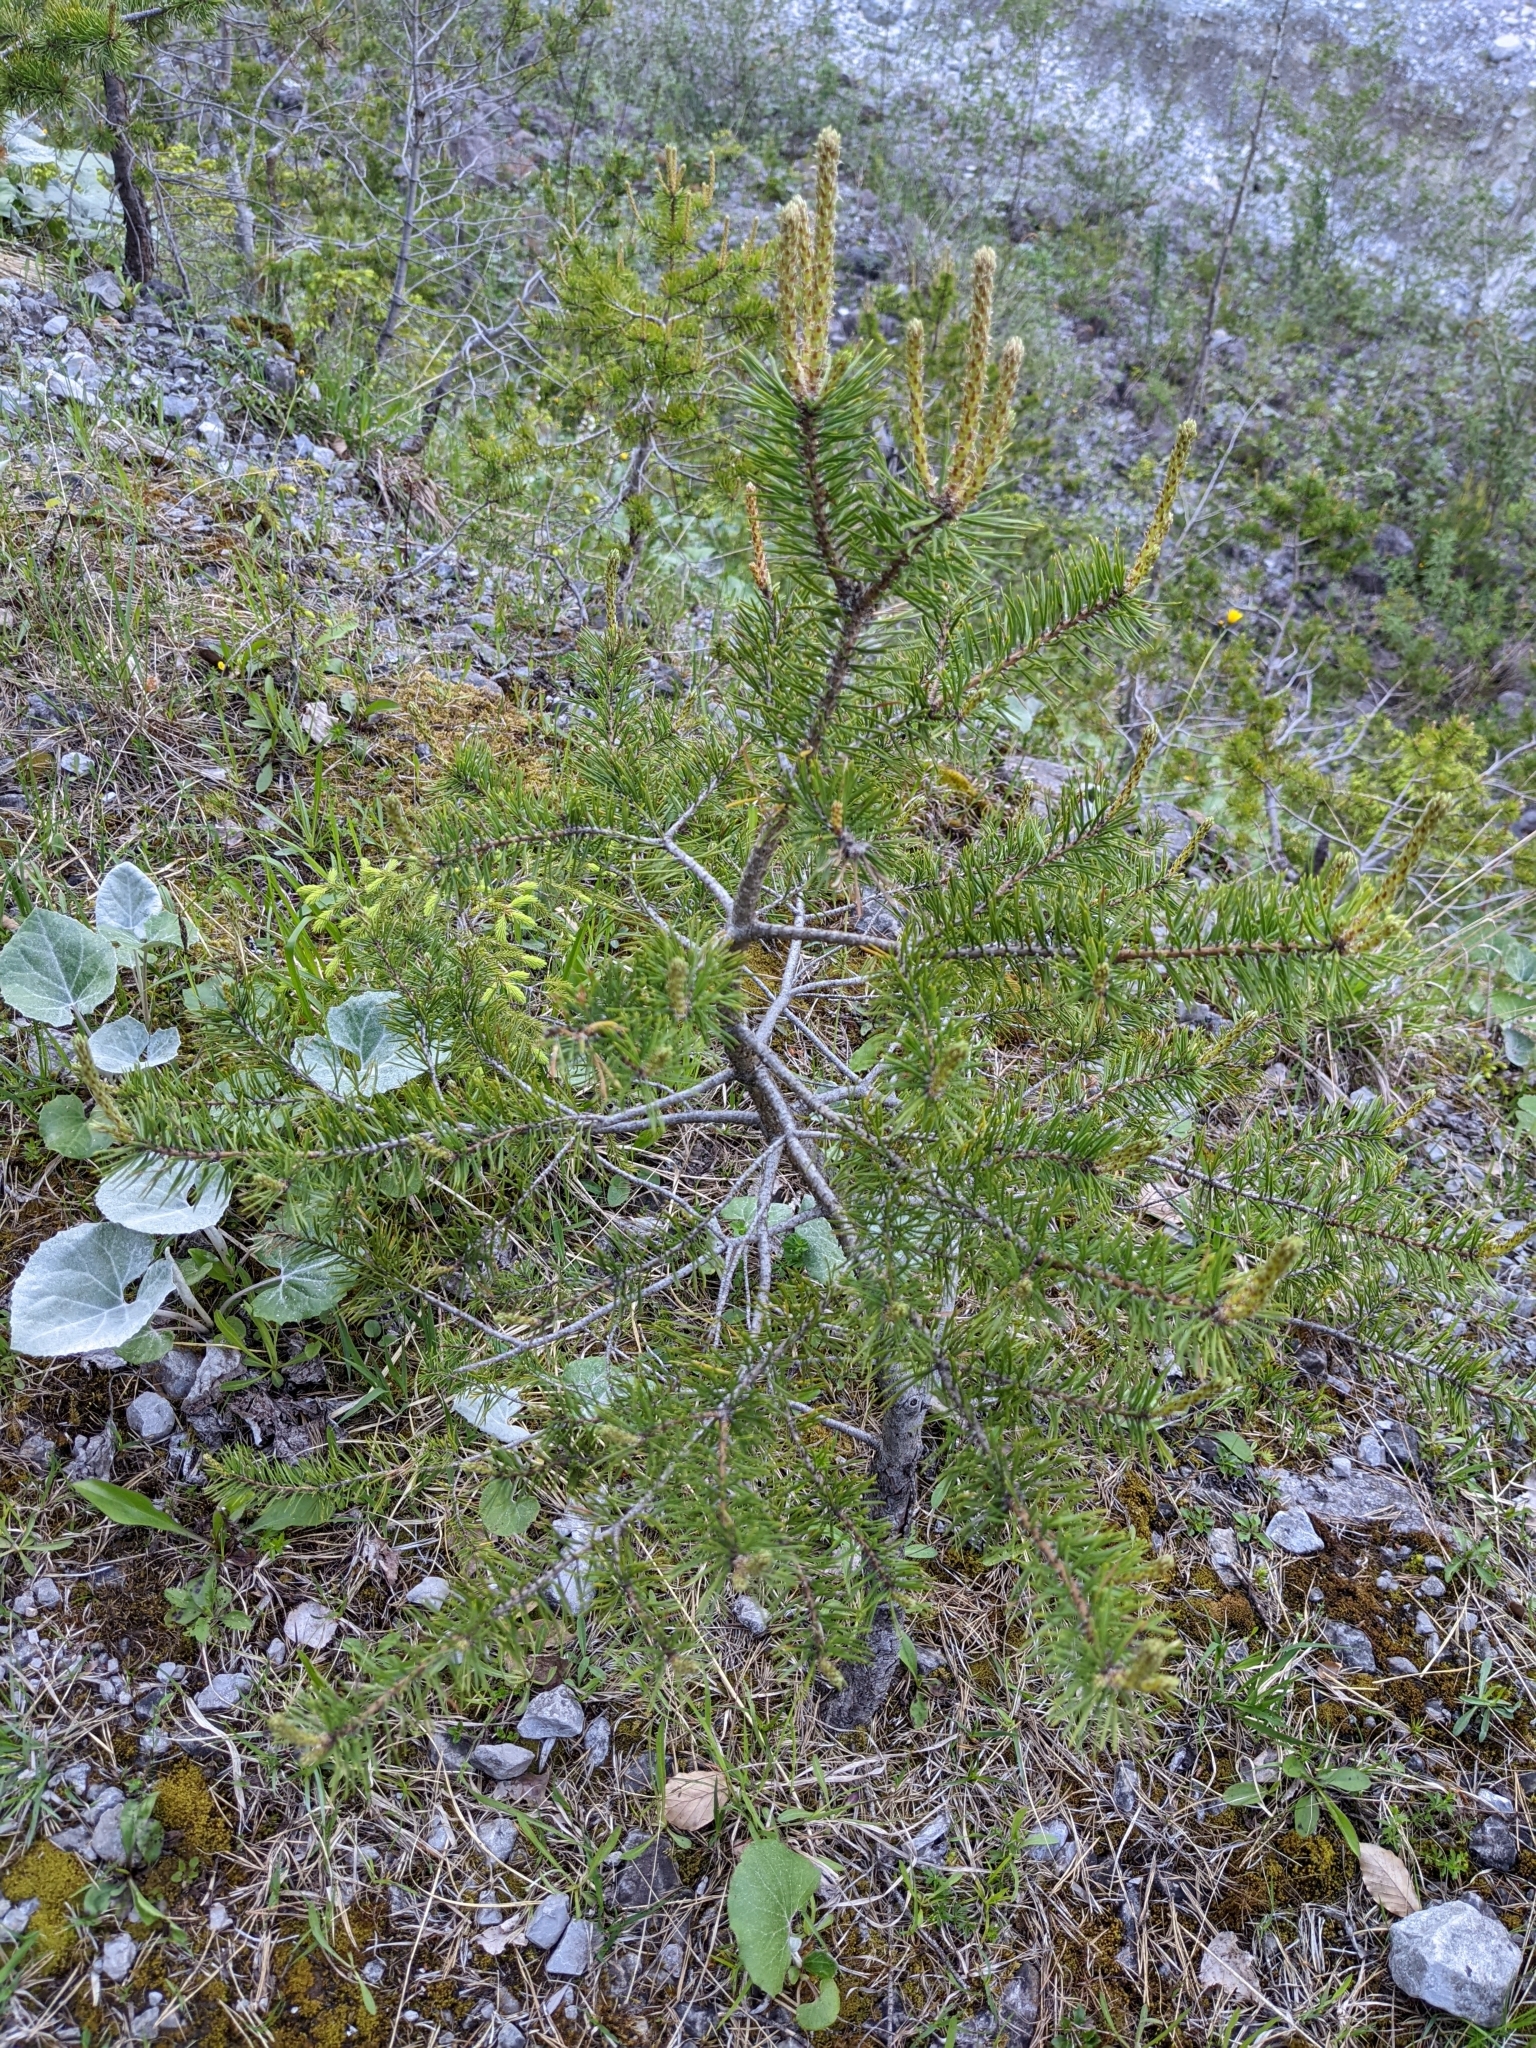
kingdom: Plantae
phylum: Tracheophyta
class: Pinopsida
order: Pinales
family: Pinaceae
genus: Pinus
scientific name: Pinus sylvestris
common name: Scots pine
